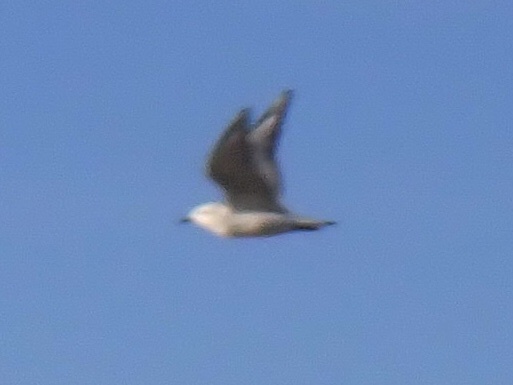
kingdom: Animalia
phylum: Chordata
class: Aves
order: Charadriiformes
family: Laridae
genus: Chroicocephalus
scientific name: Chroicocephalus philadelphia
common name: Bonaparte's gull
